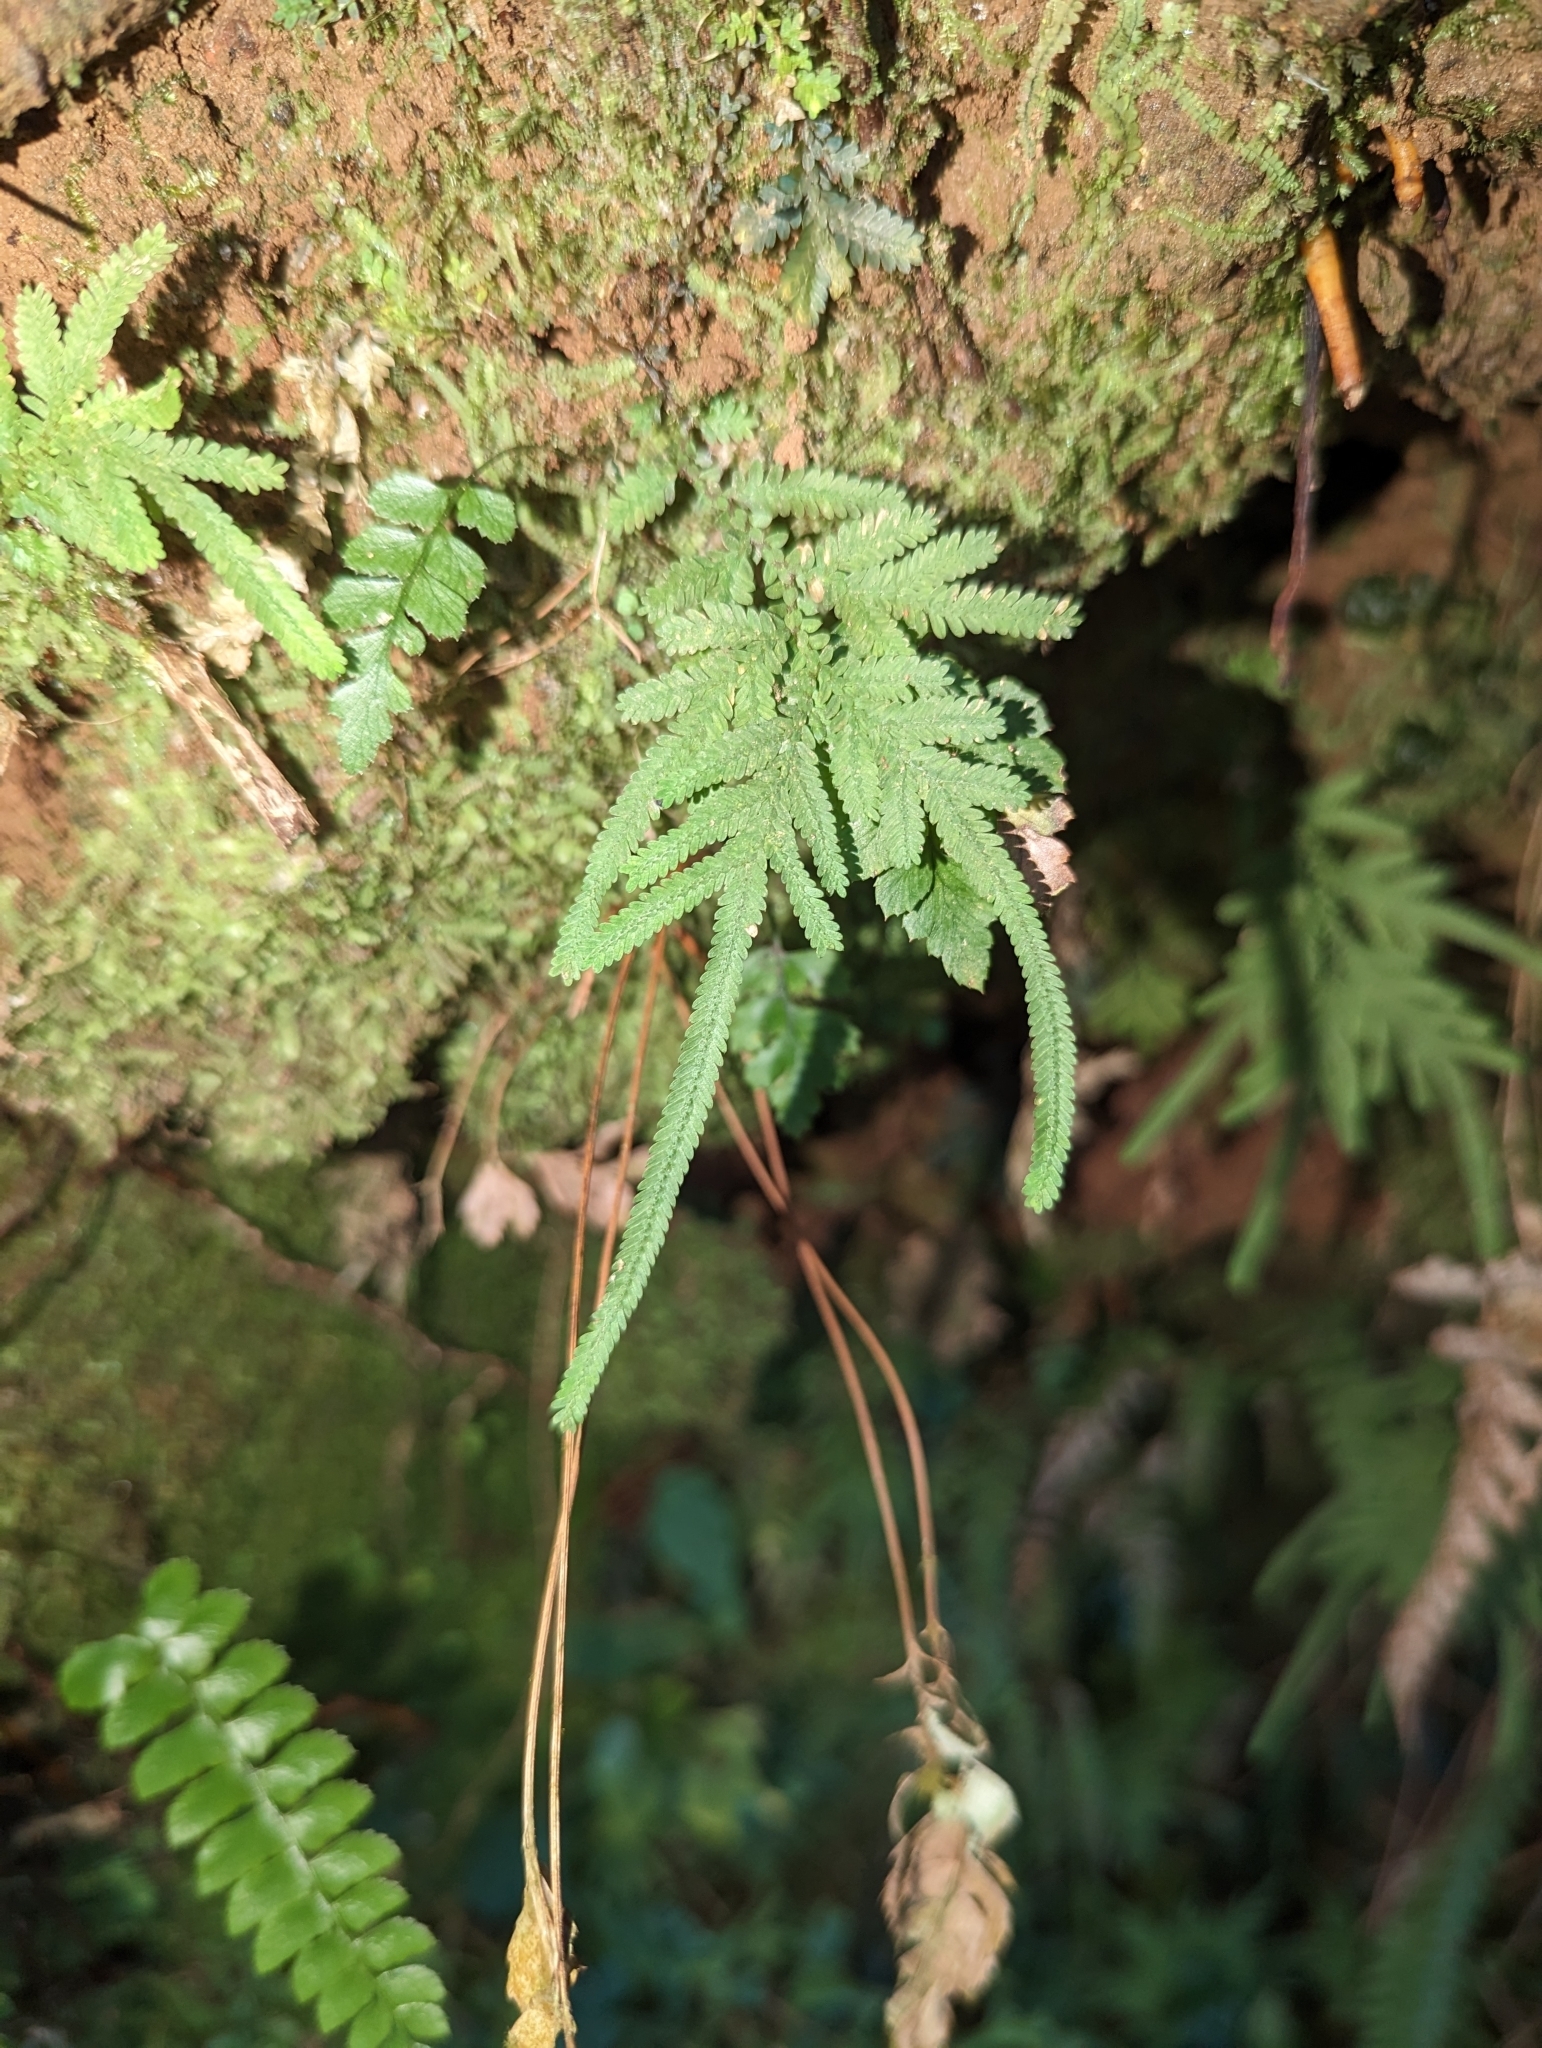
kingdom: Plantae
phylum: Tracheophyta
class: Lycopodiopsida
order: Selaginellales
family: Selaginellaceae
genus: Selaginella
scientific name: Selaginella delicatula
